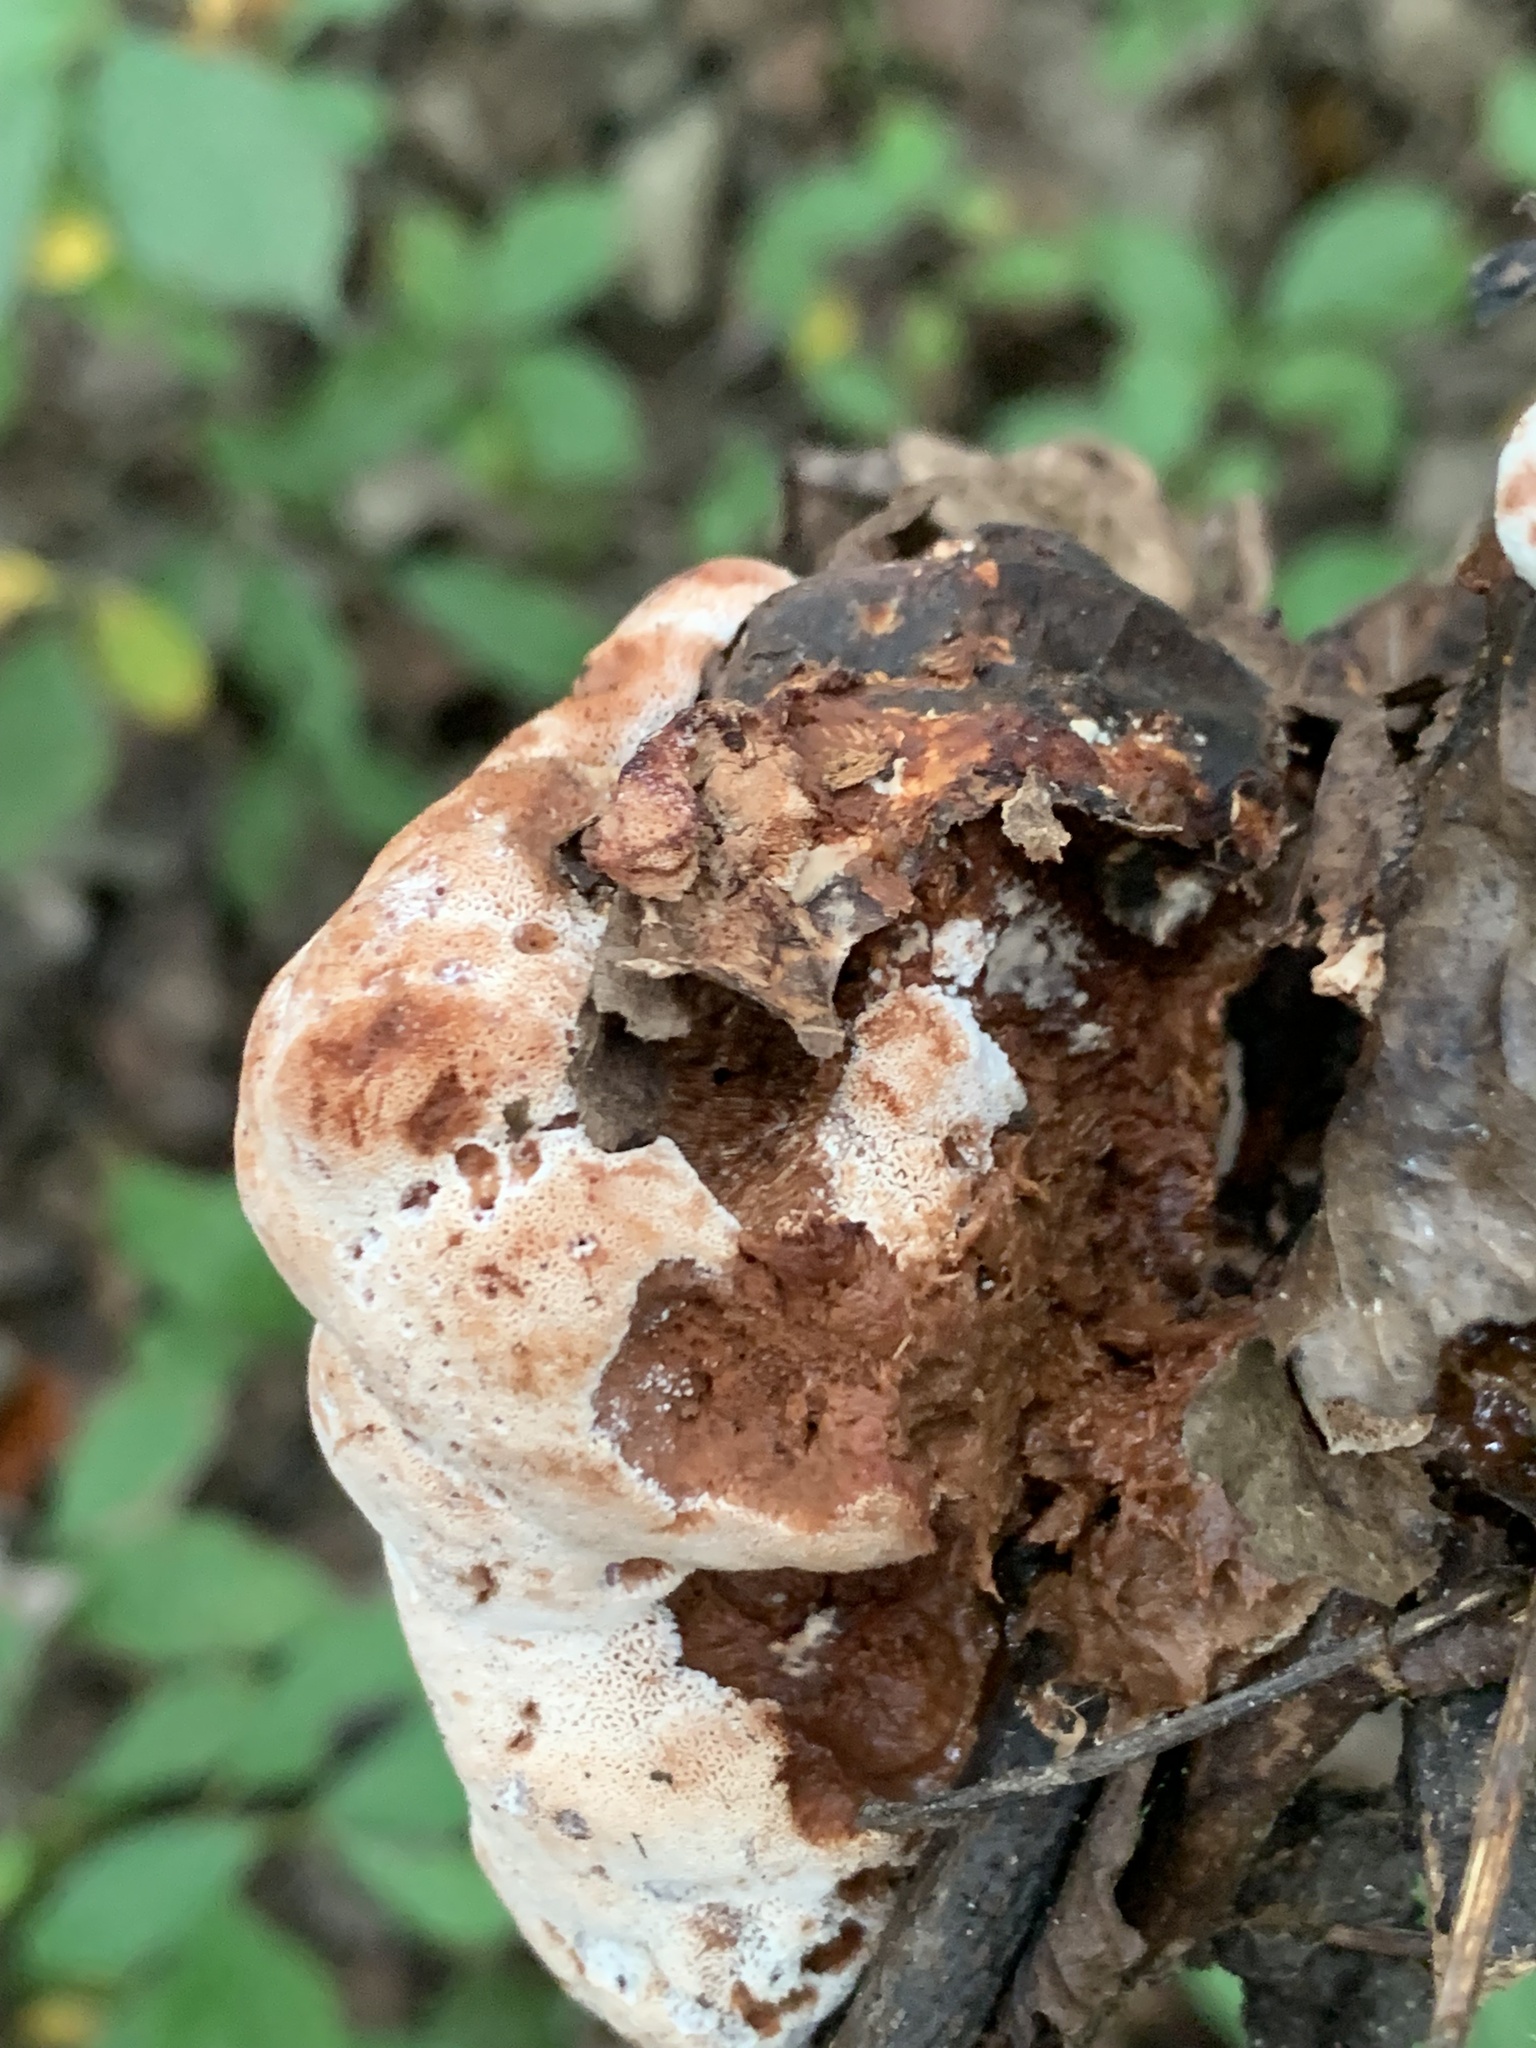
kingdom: Fungi
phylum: Basidiomycota
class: Agaricomycetes
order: Polyporales
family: Podoscyphaceae
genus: Abortiporus
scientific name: Abortiporus biennis
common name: Blushing rosette
